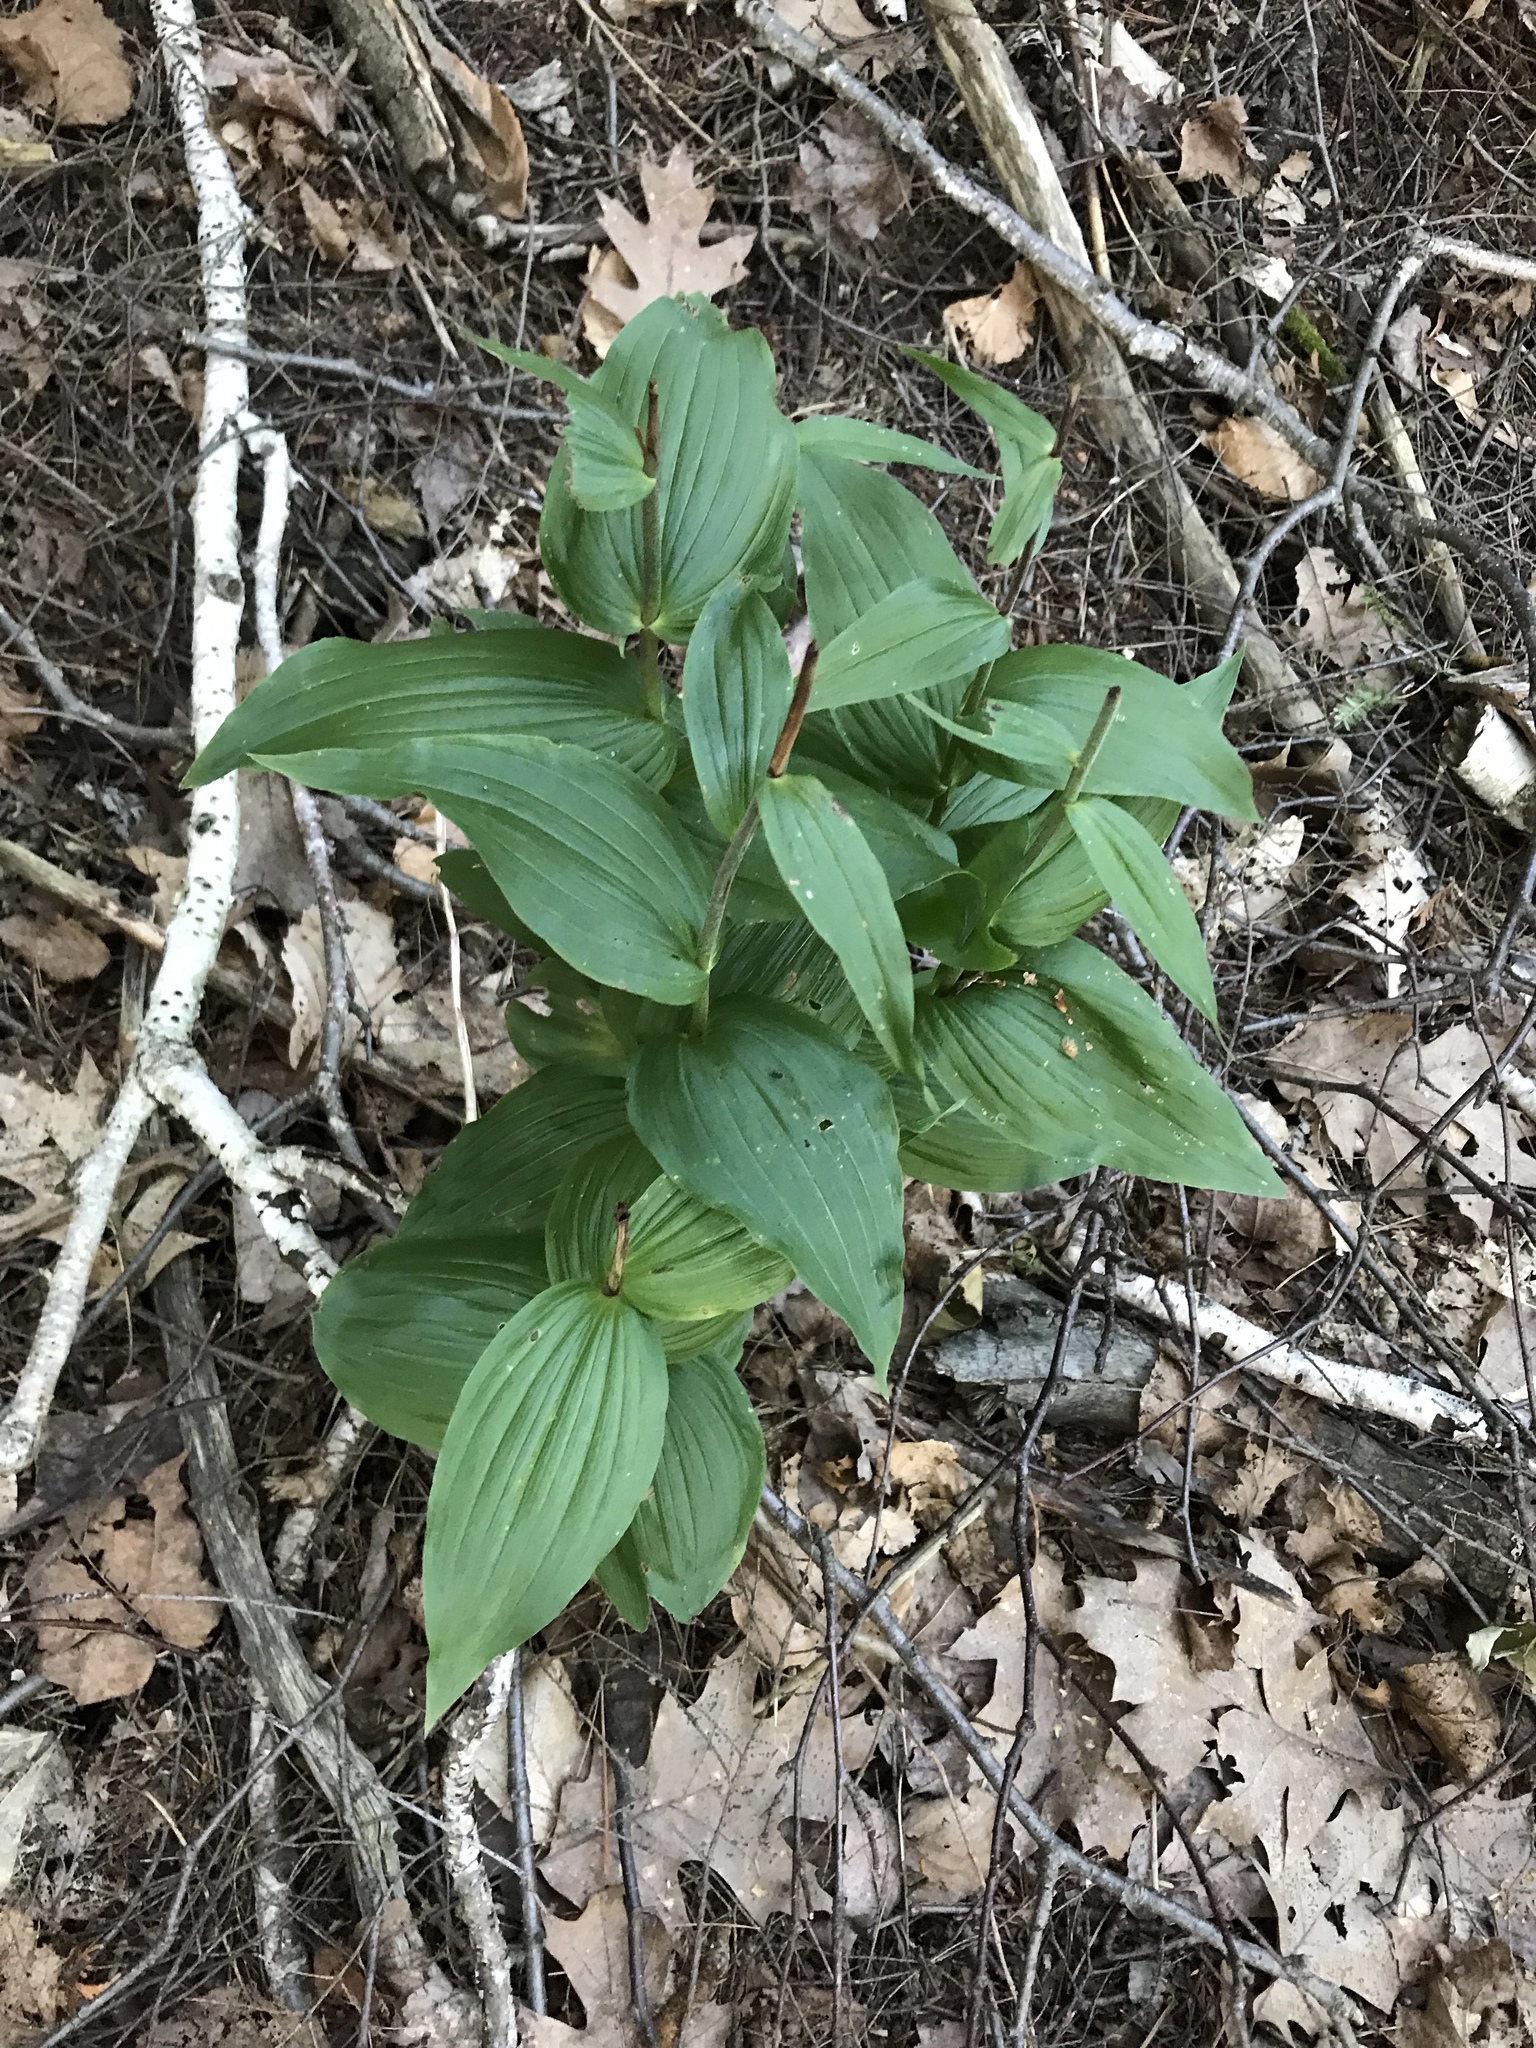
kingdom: Plantae
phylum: Tracheophyta
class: Liliopsida
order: Asparagales
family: Orchidaceae
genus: Epipactis
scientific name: Epipactis helleborine
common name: Broad-leaved helleborine
